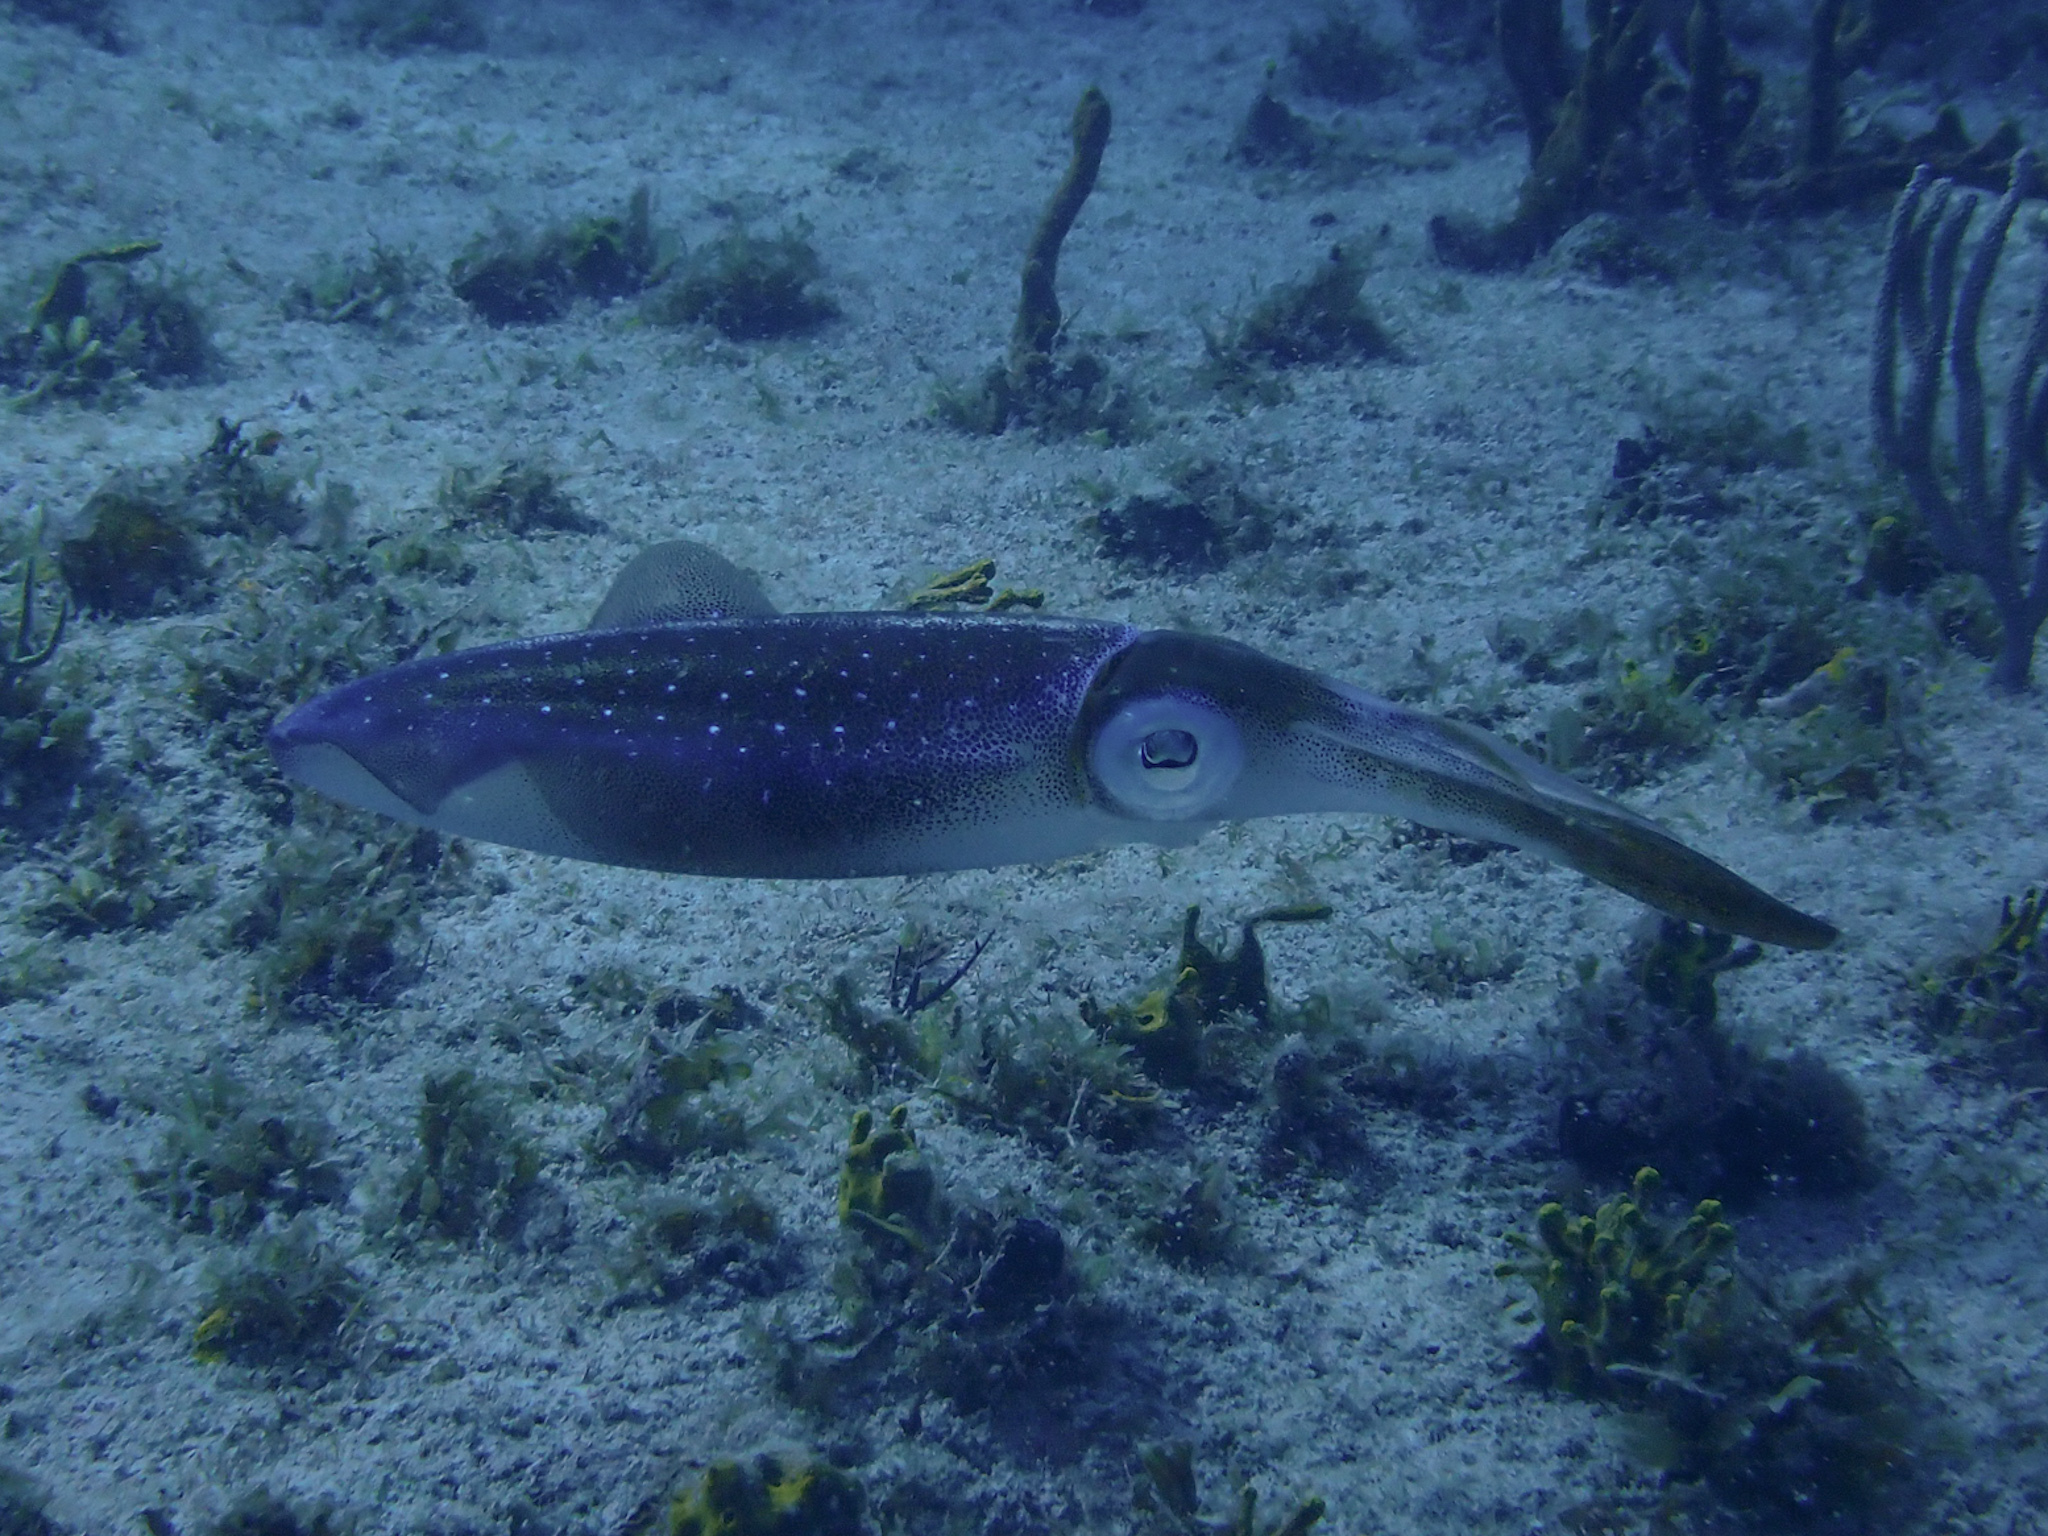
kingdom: Animalia
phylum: Mollusca
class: Cephalopoda
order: Myopsida
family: Loliginidae
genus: Sepioteuthis
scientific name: Sepioteuthis sepioidea
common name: Caribbean reef squid
